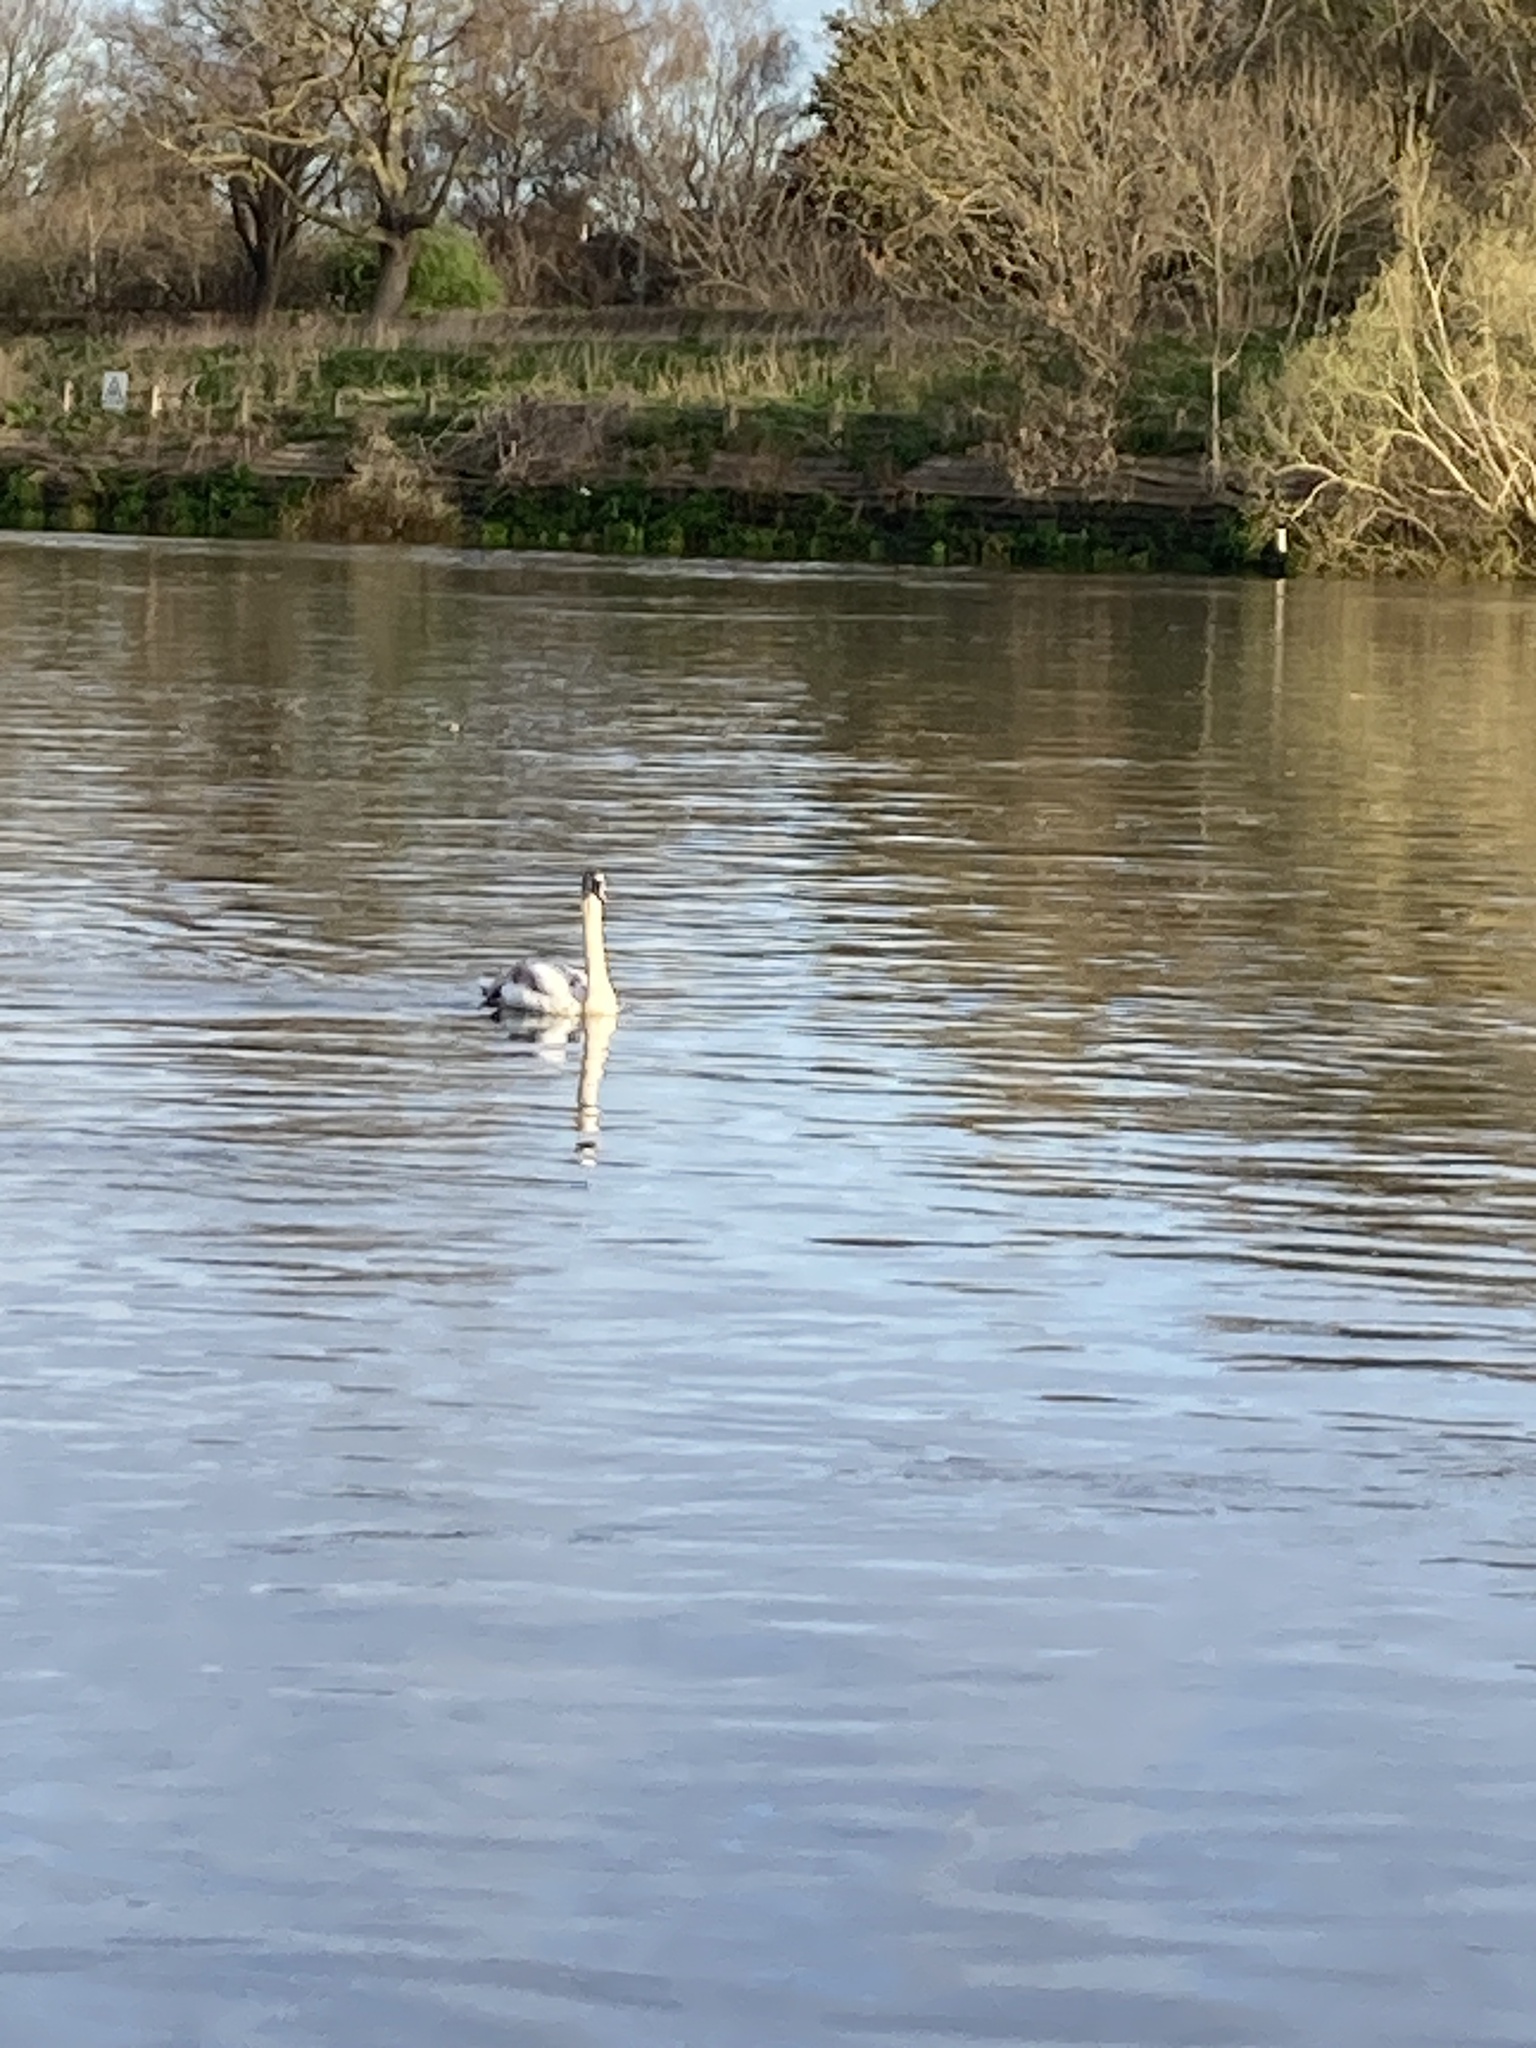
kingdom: Animalia
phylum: Chordata
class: Aves
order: Anseriformes
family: Anatidae
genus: Cygnus
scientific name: Cygnus olor
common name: Mute swan
